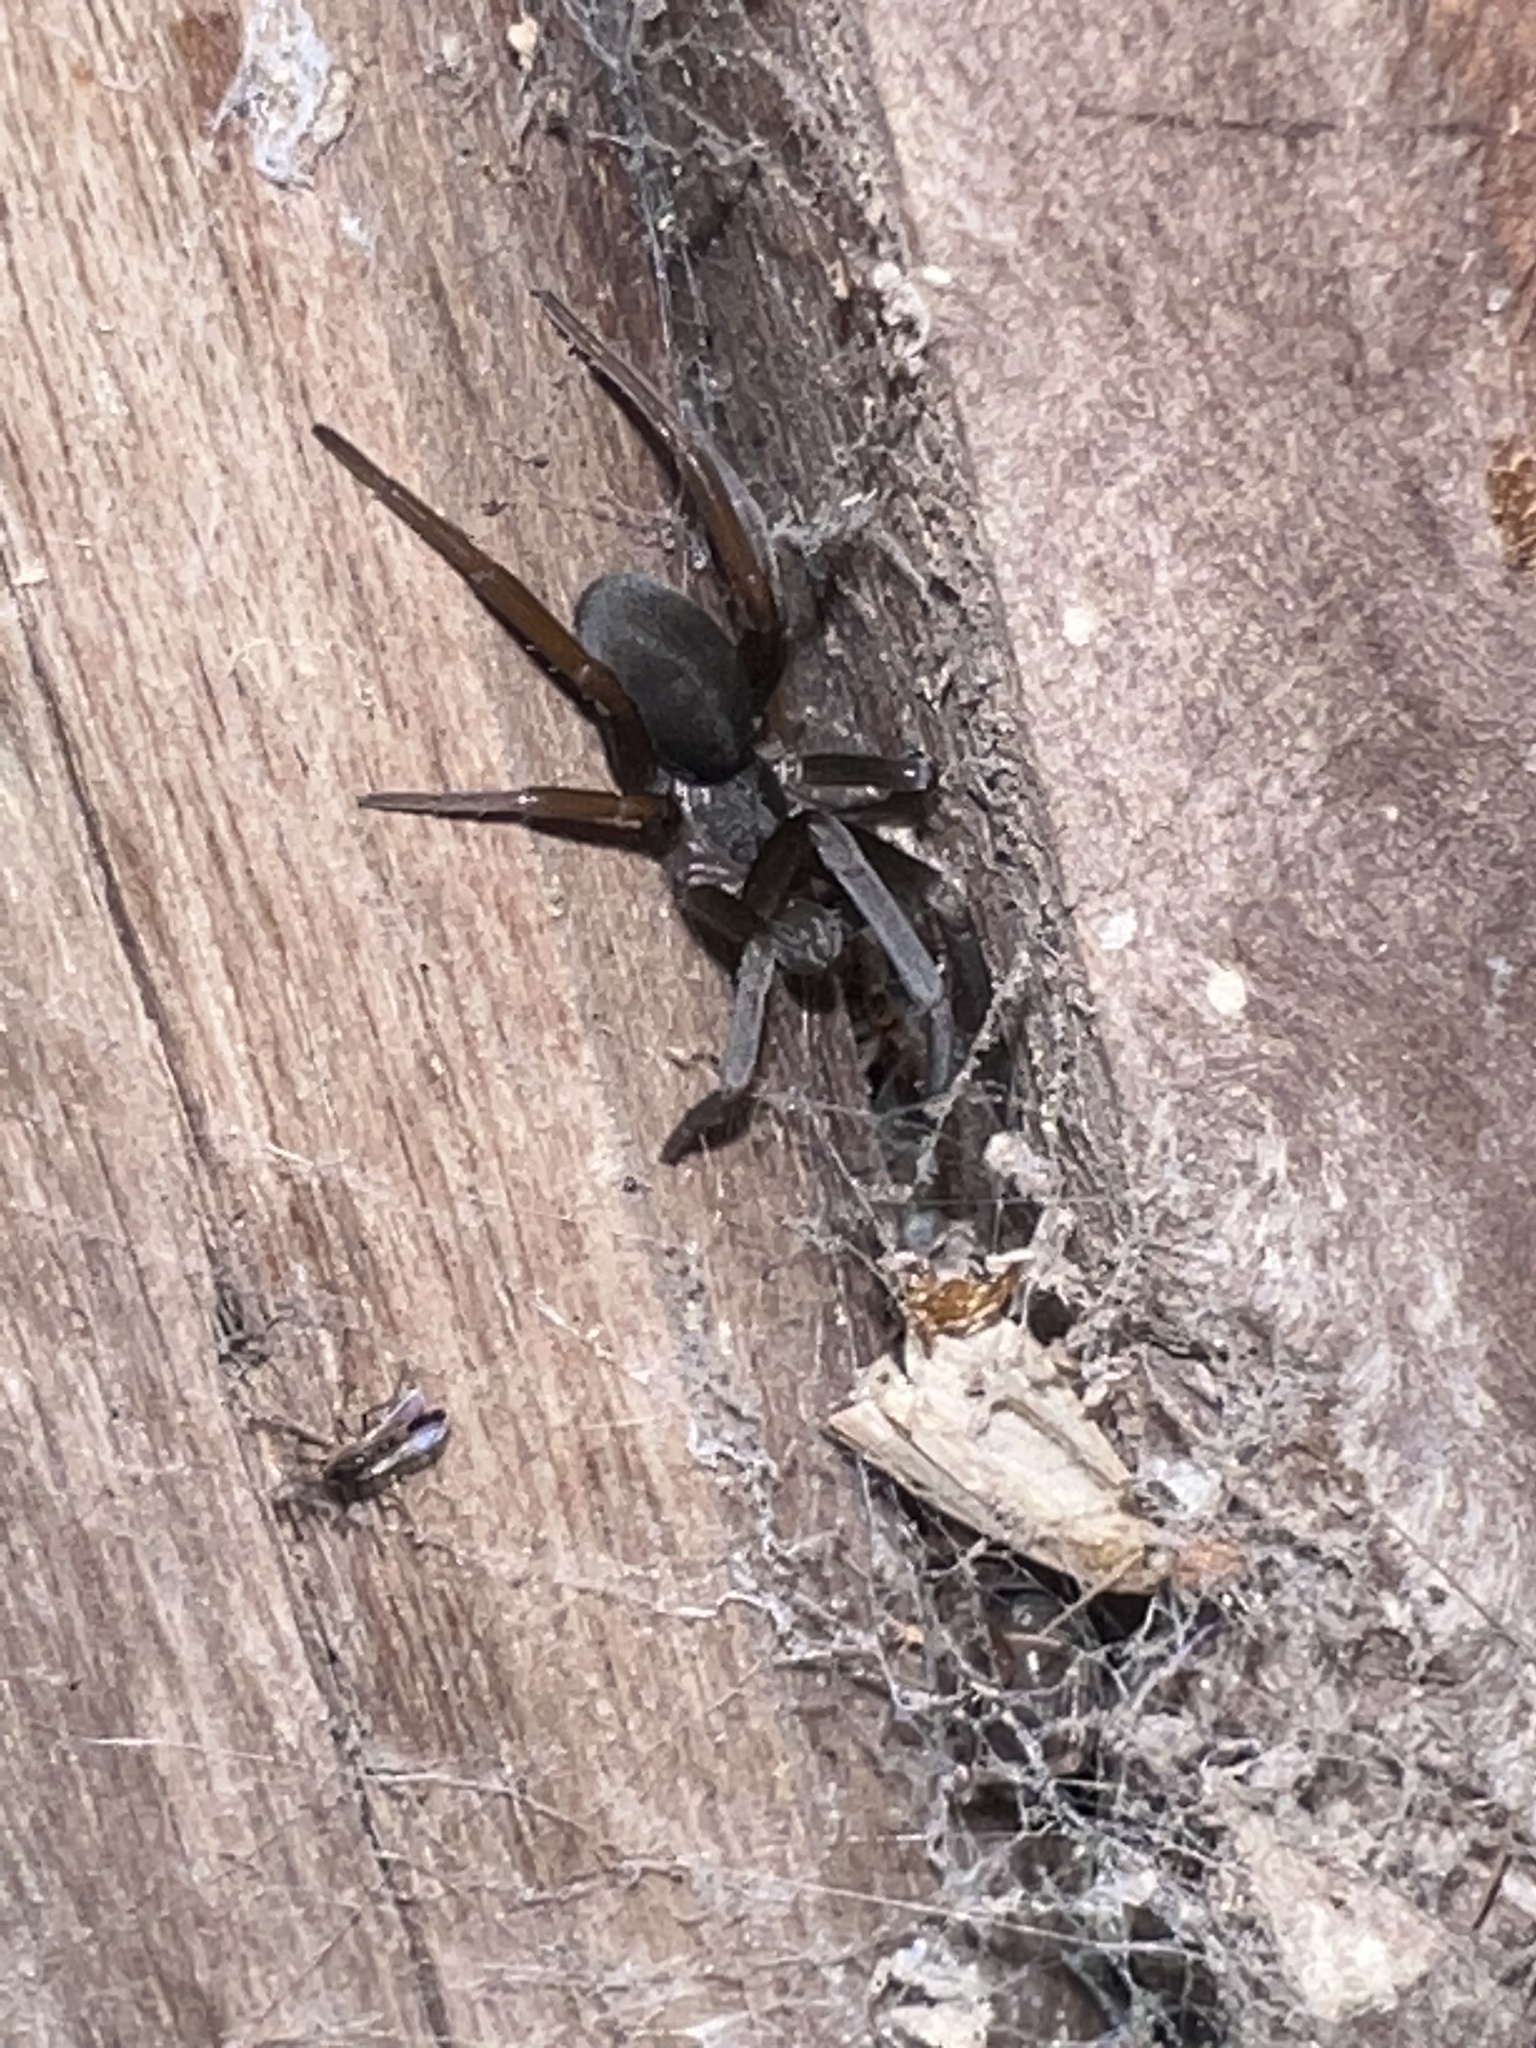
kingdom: Animalia
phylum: Arthropoda
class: Arachnida
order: Araneae
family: Filistatidae
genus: Kukulcania
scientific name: Kukulcania hibernalis
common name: Crevice weaver
